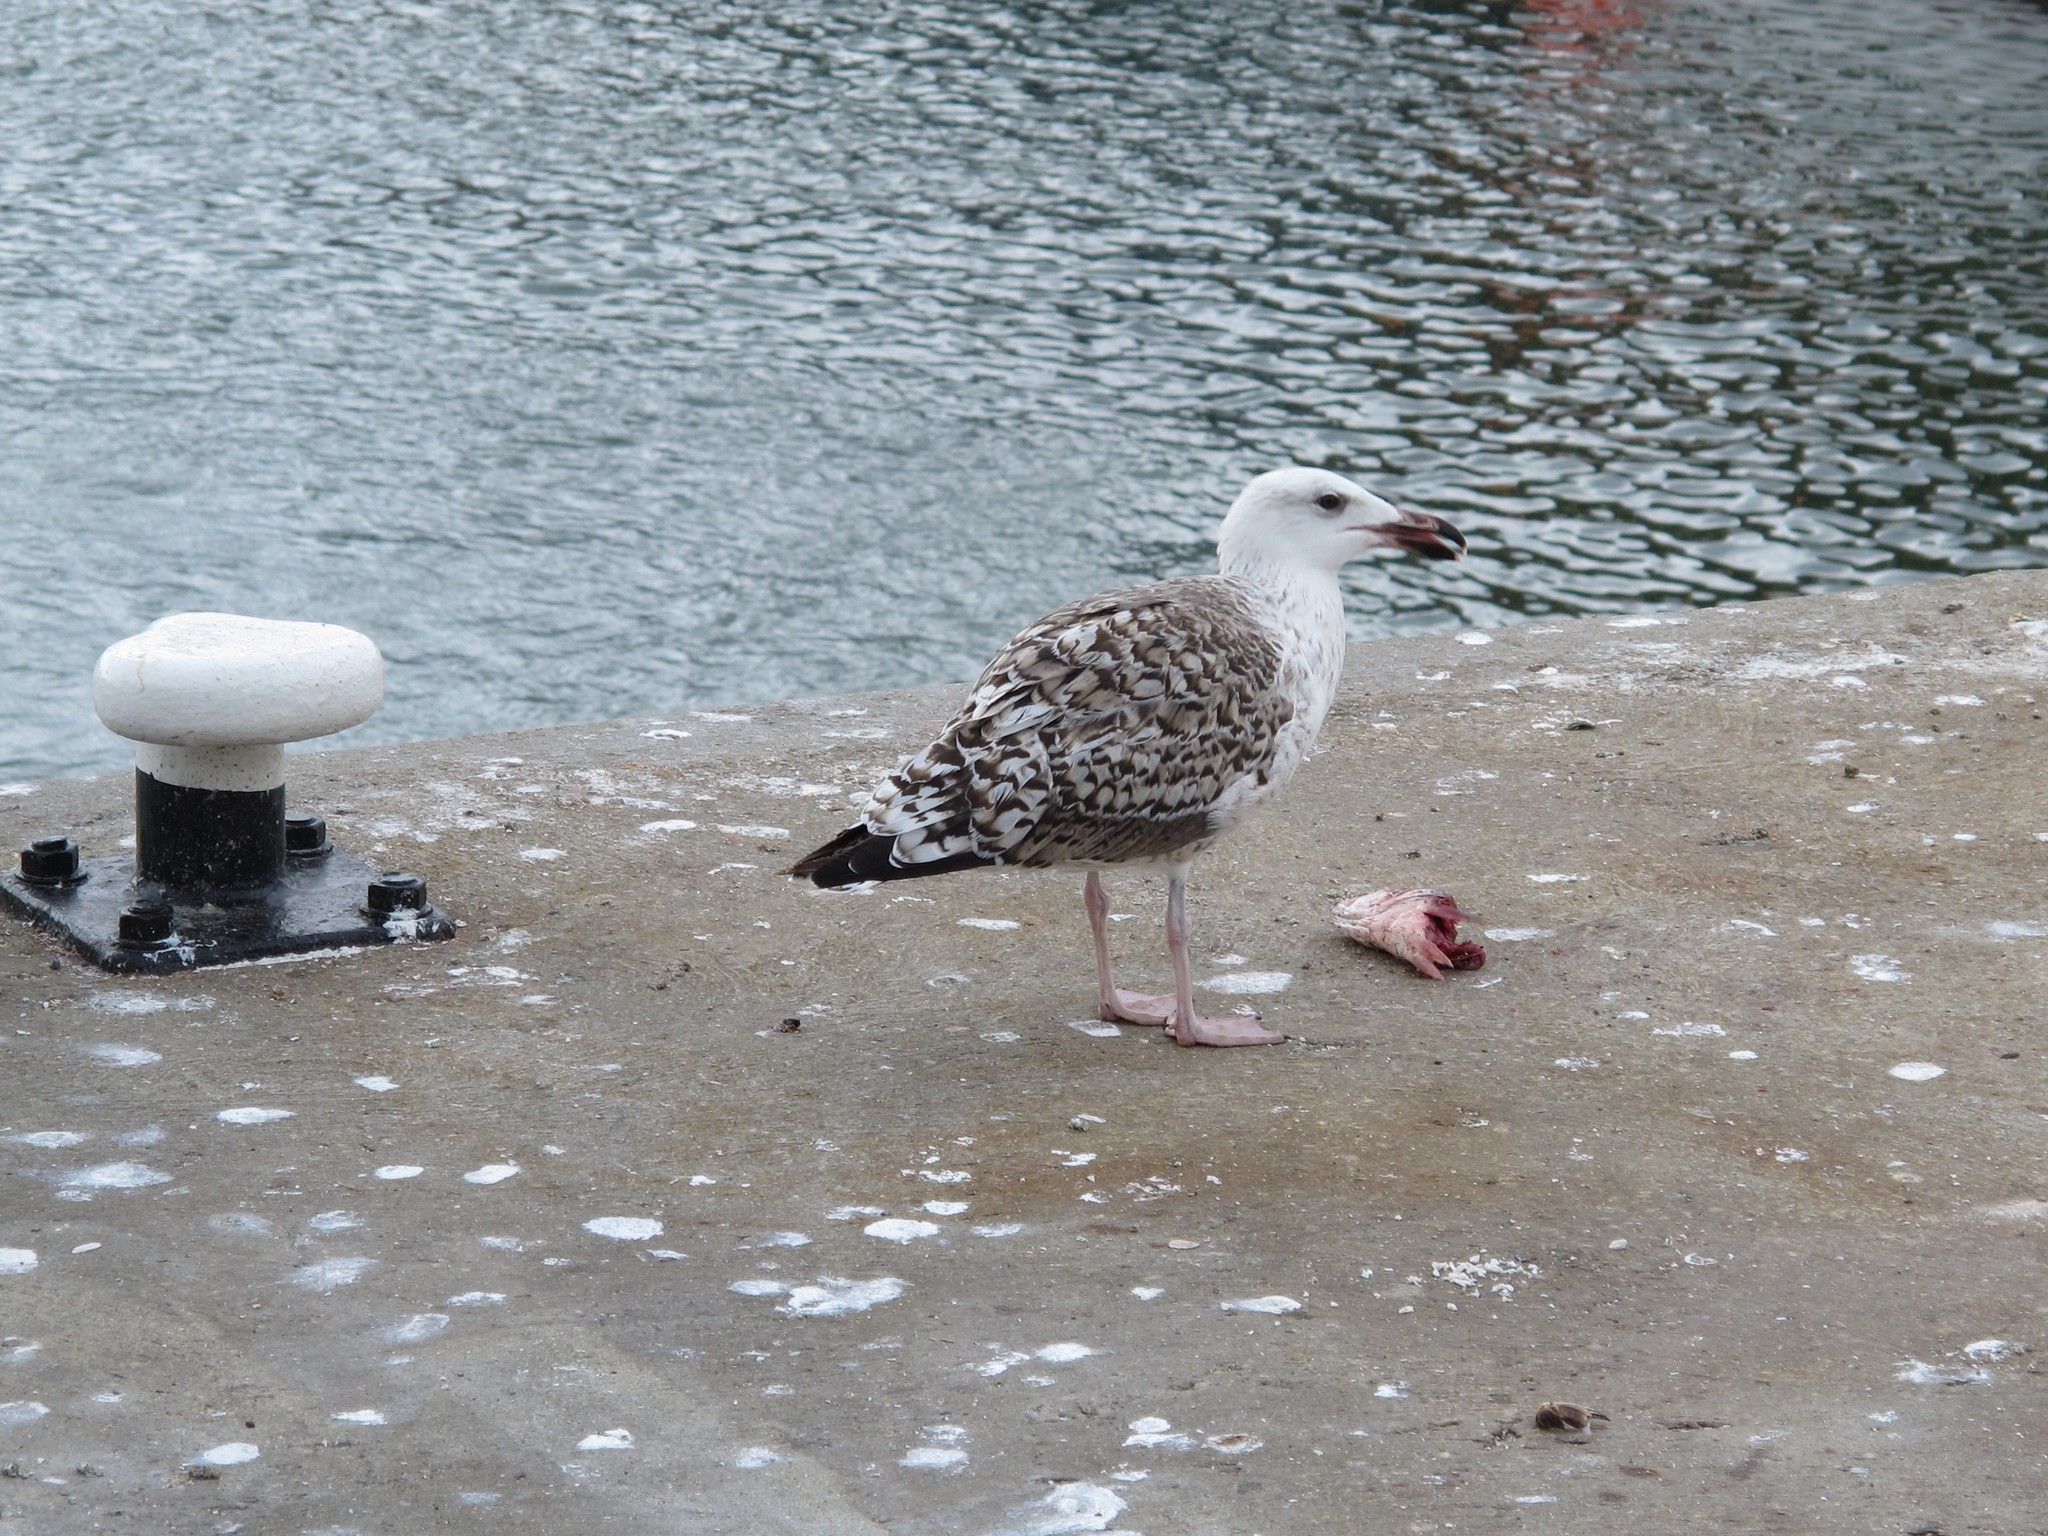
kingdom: Animalia
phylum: Chordata
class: Aves
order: Charadriiformes
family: Laridae
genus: Larus
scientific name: Larus marinus
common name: Great black-backed gull
